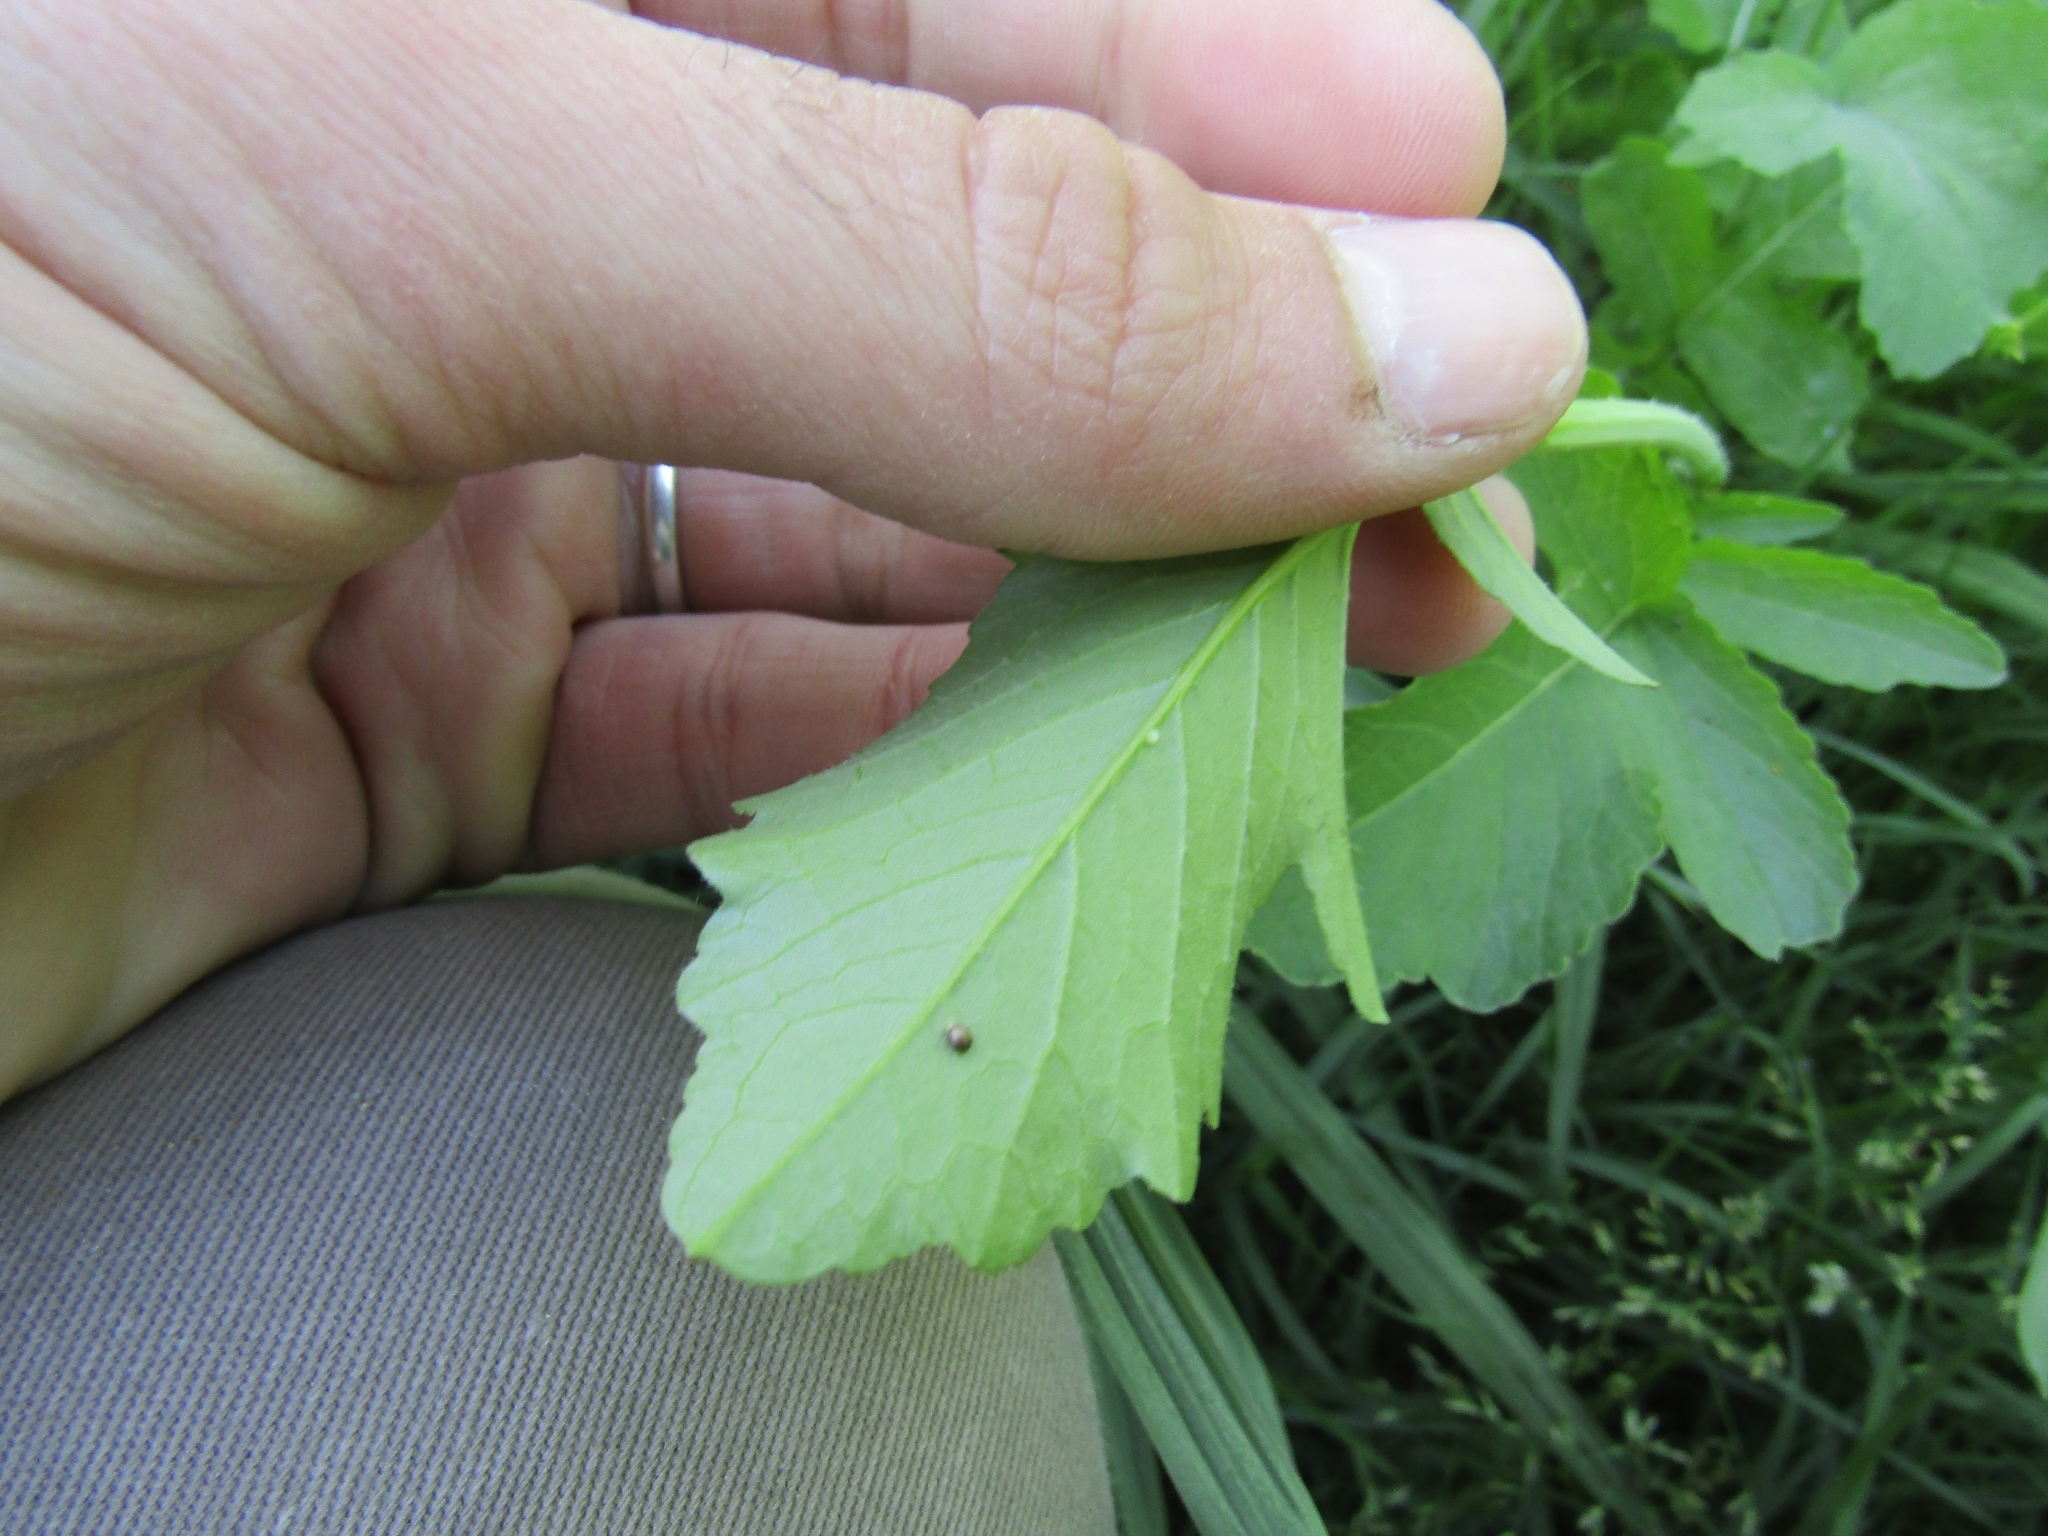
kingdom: Plantae
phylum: Tracheophyta
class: Magnoliopsida
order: Brassicales
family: Brassicaceae
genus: Raphanus
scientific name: Raphanus sativus
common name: Cultivated radish
